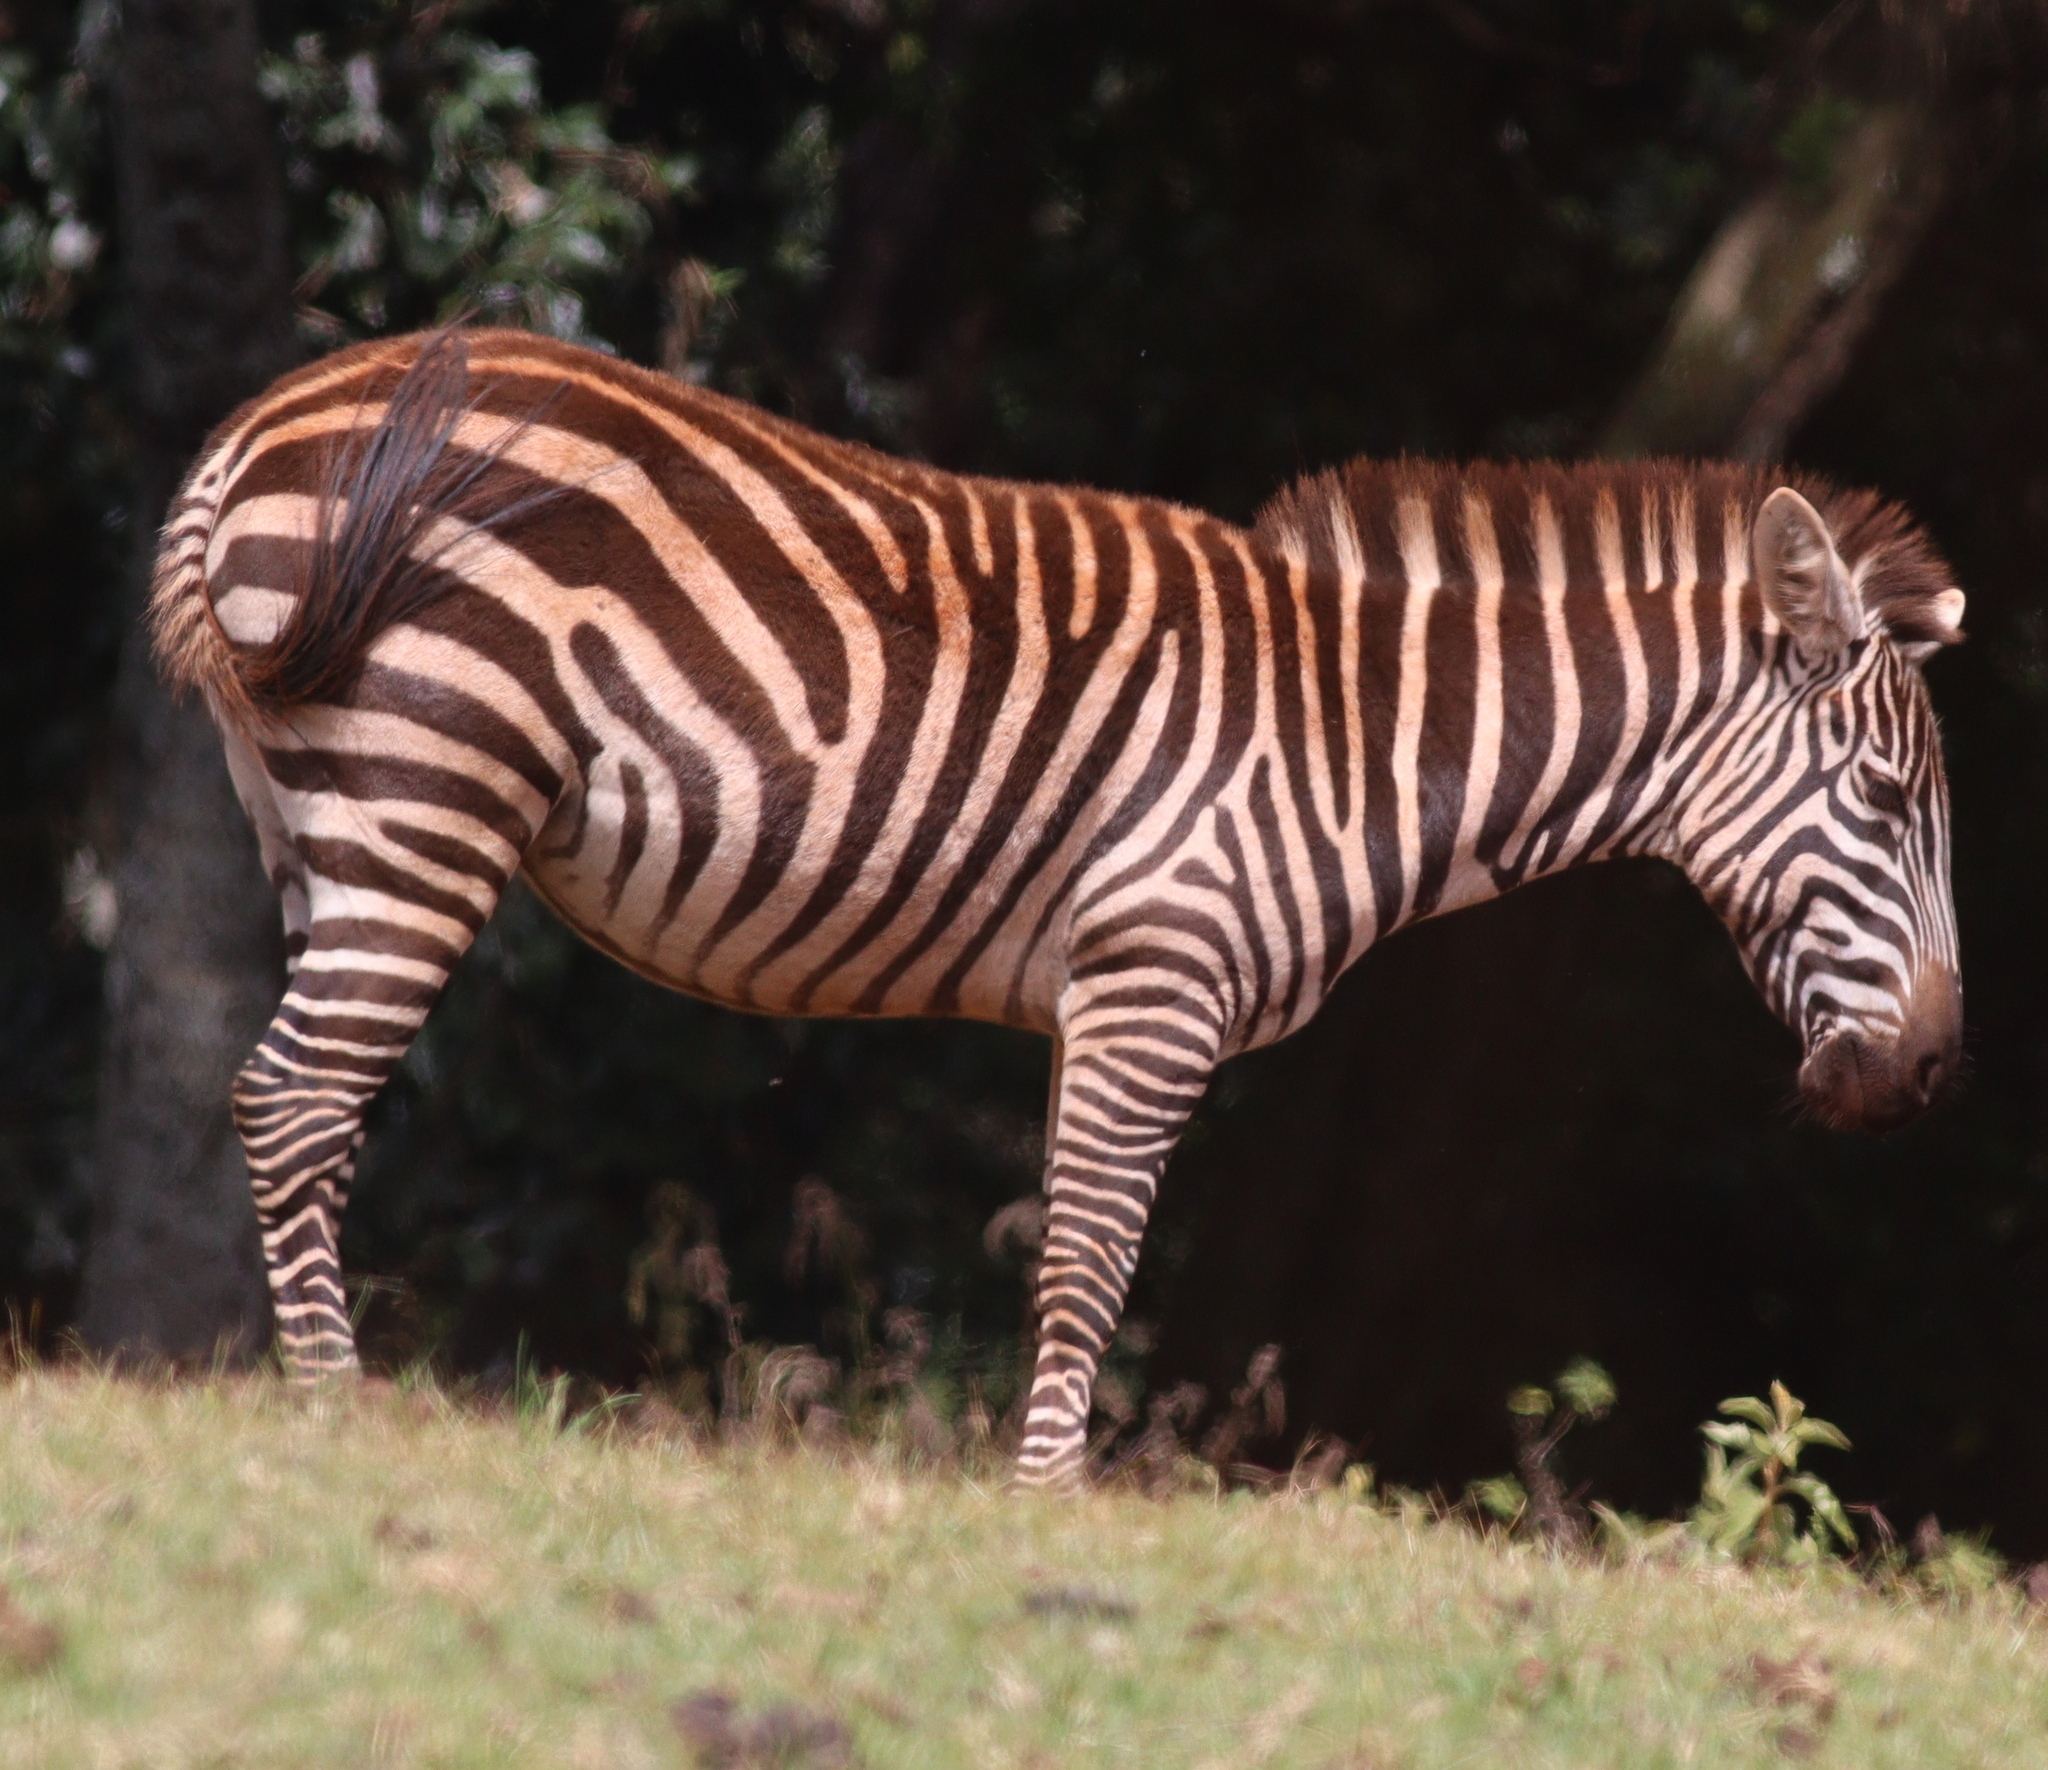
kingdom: Animalia
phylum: Chordata
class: Mammalia
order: Perissodactyla
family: Equidae
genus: Equus
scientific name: Equus quagga
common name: Plains zebra
